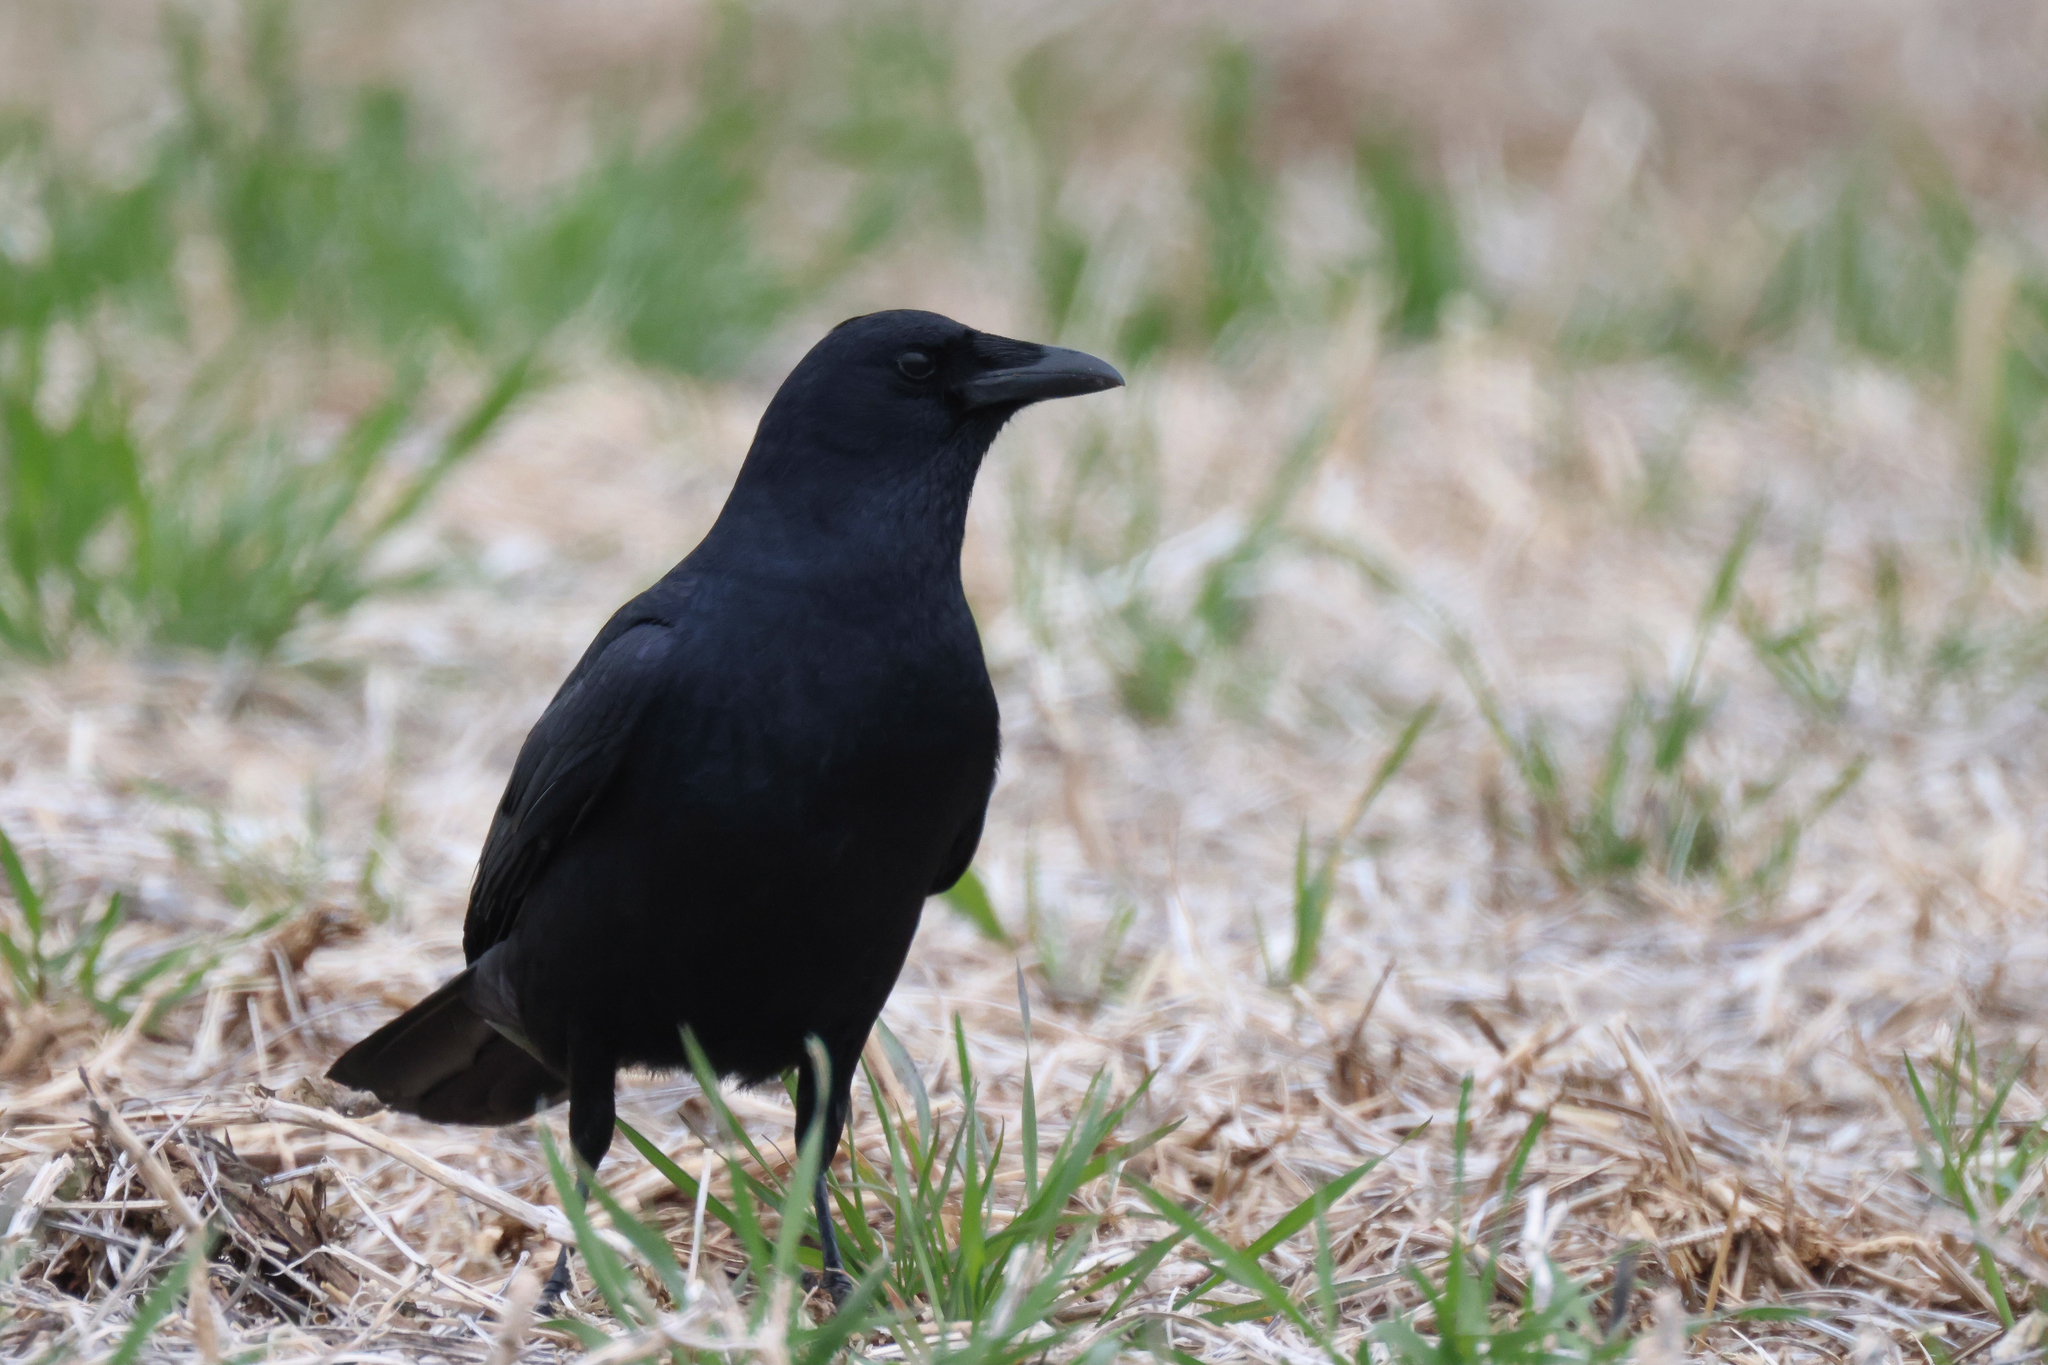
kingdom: Animalia
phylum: Chordata
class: Aves
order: Passeriformes
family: Corvidae
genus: Corvus
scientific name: Corvus ossifragus
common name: Fish crow
